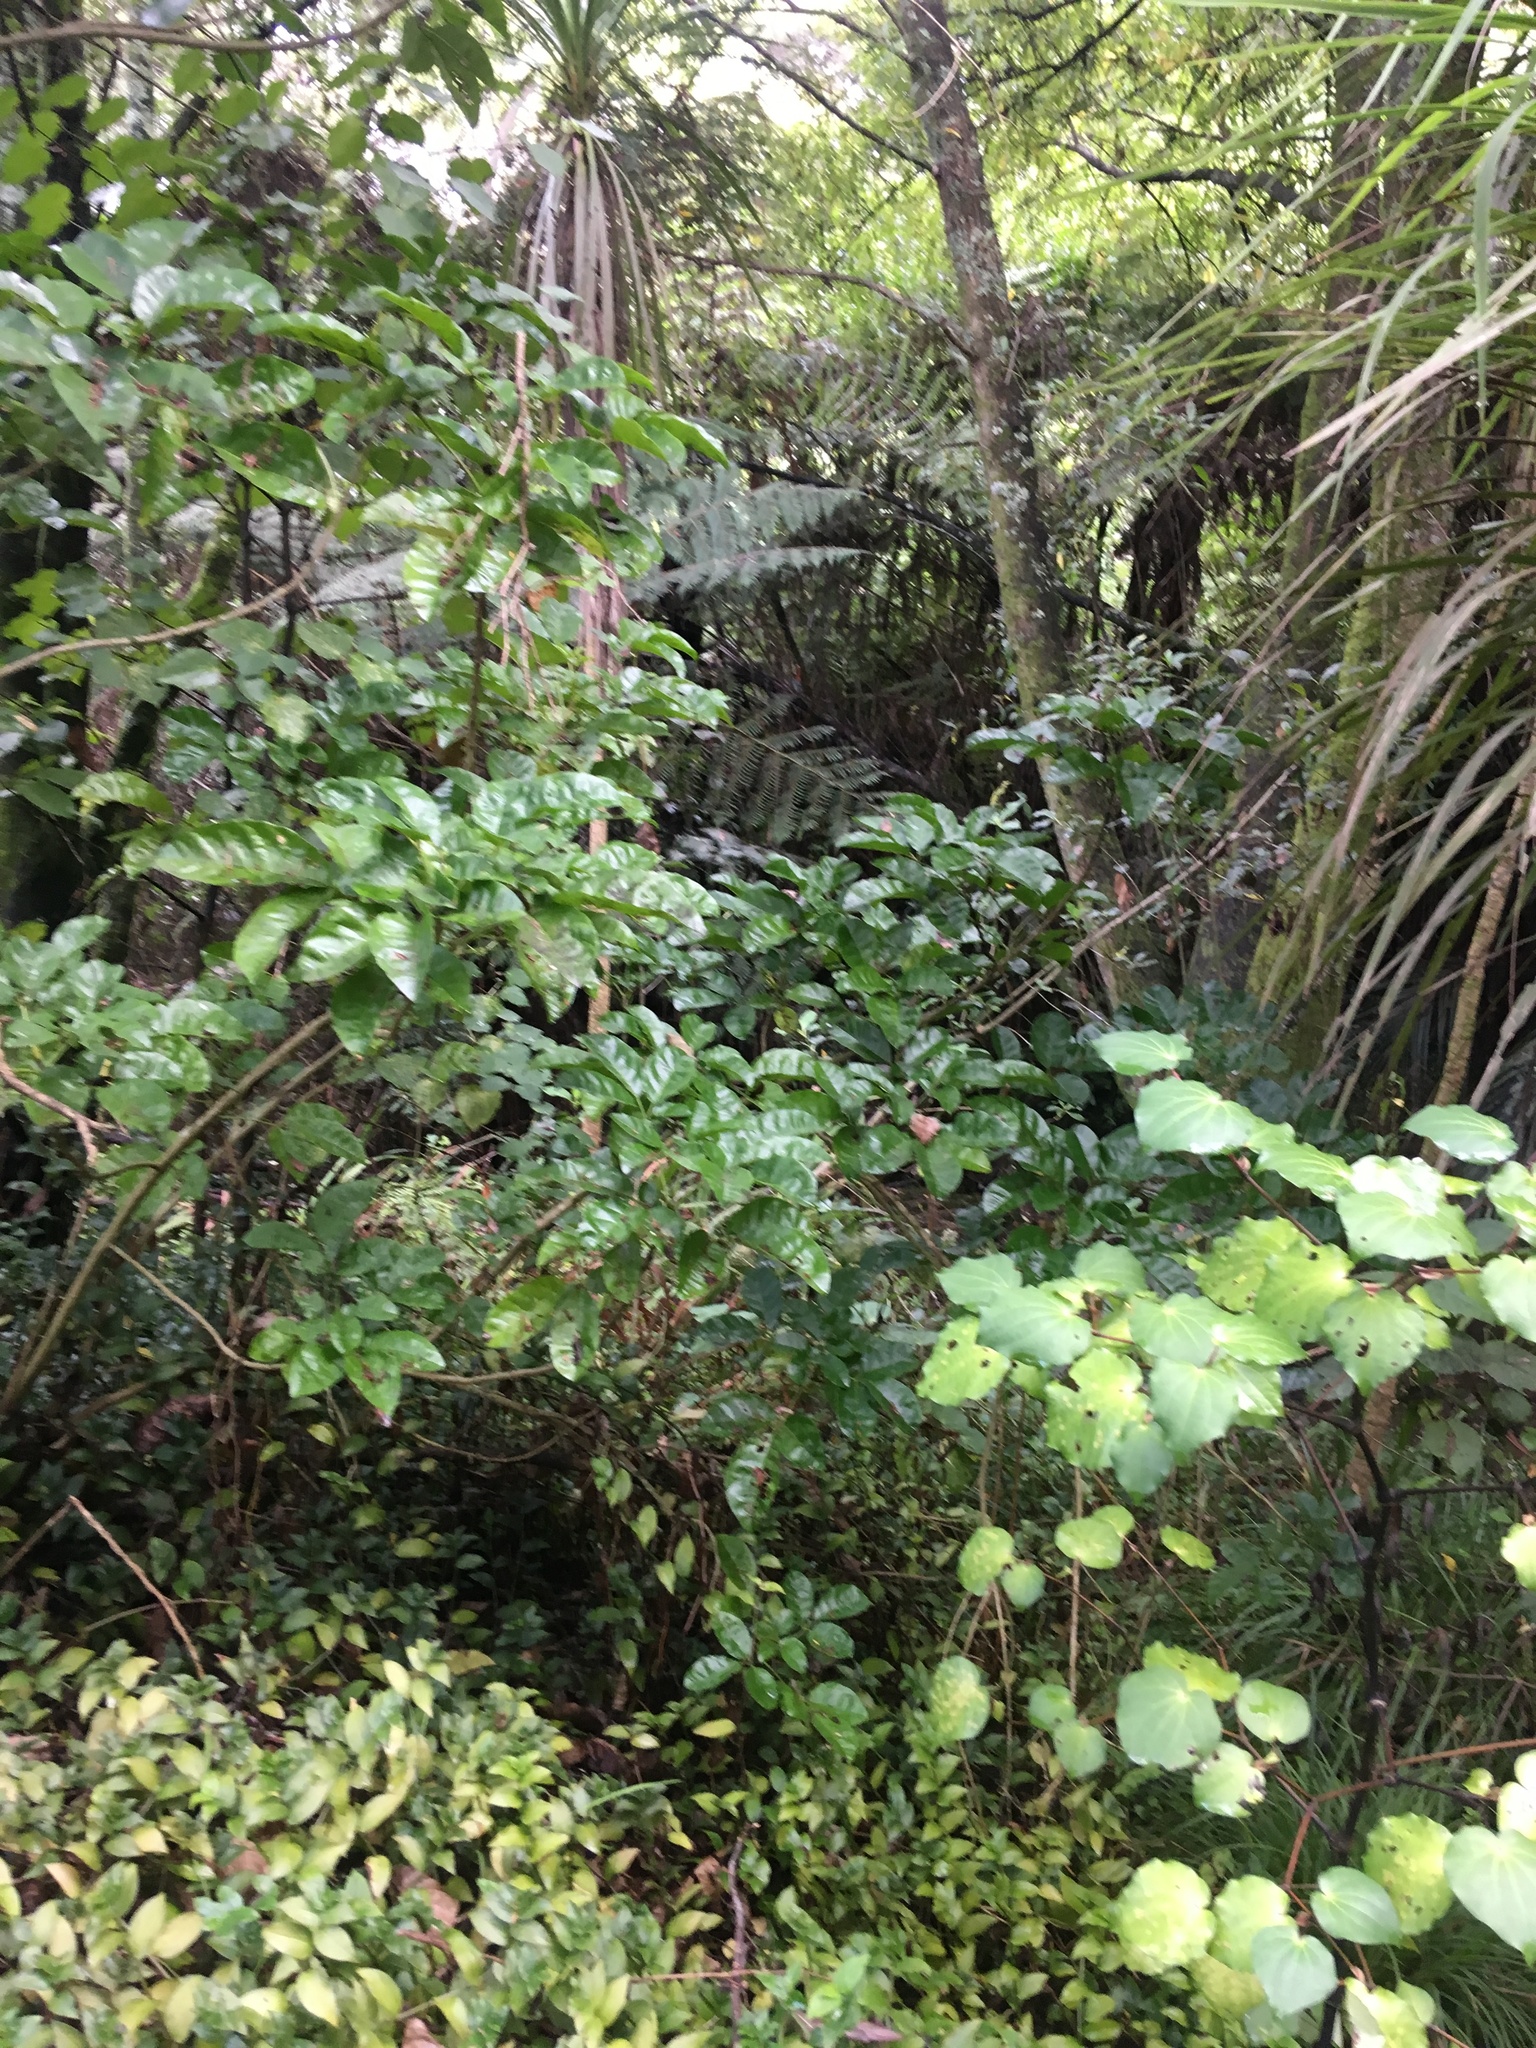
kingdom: Plantae
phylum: Tracheophyta
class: Magnoliopsida
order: Lamiales
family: Lamiaceae
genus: Vitex
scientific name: Vitex lucens
